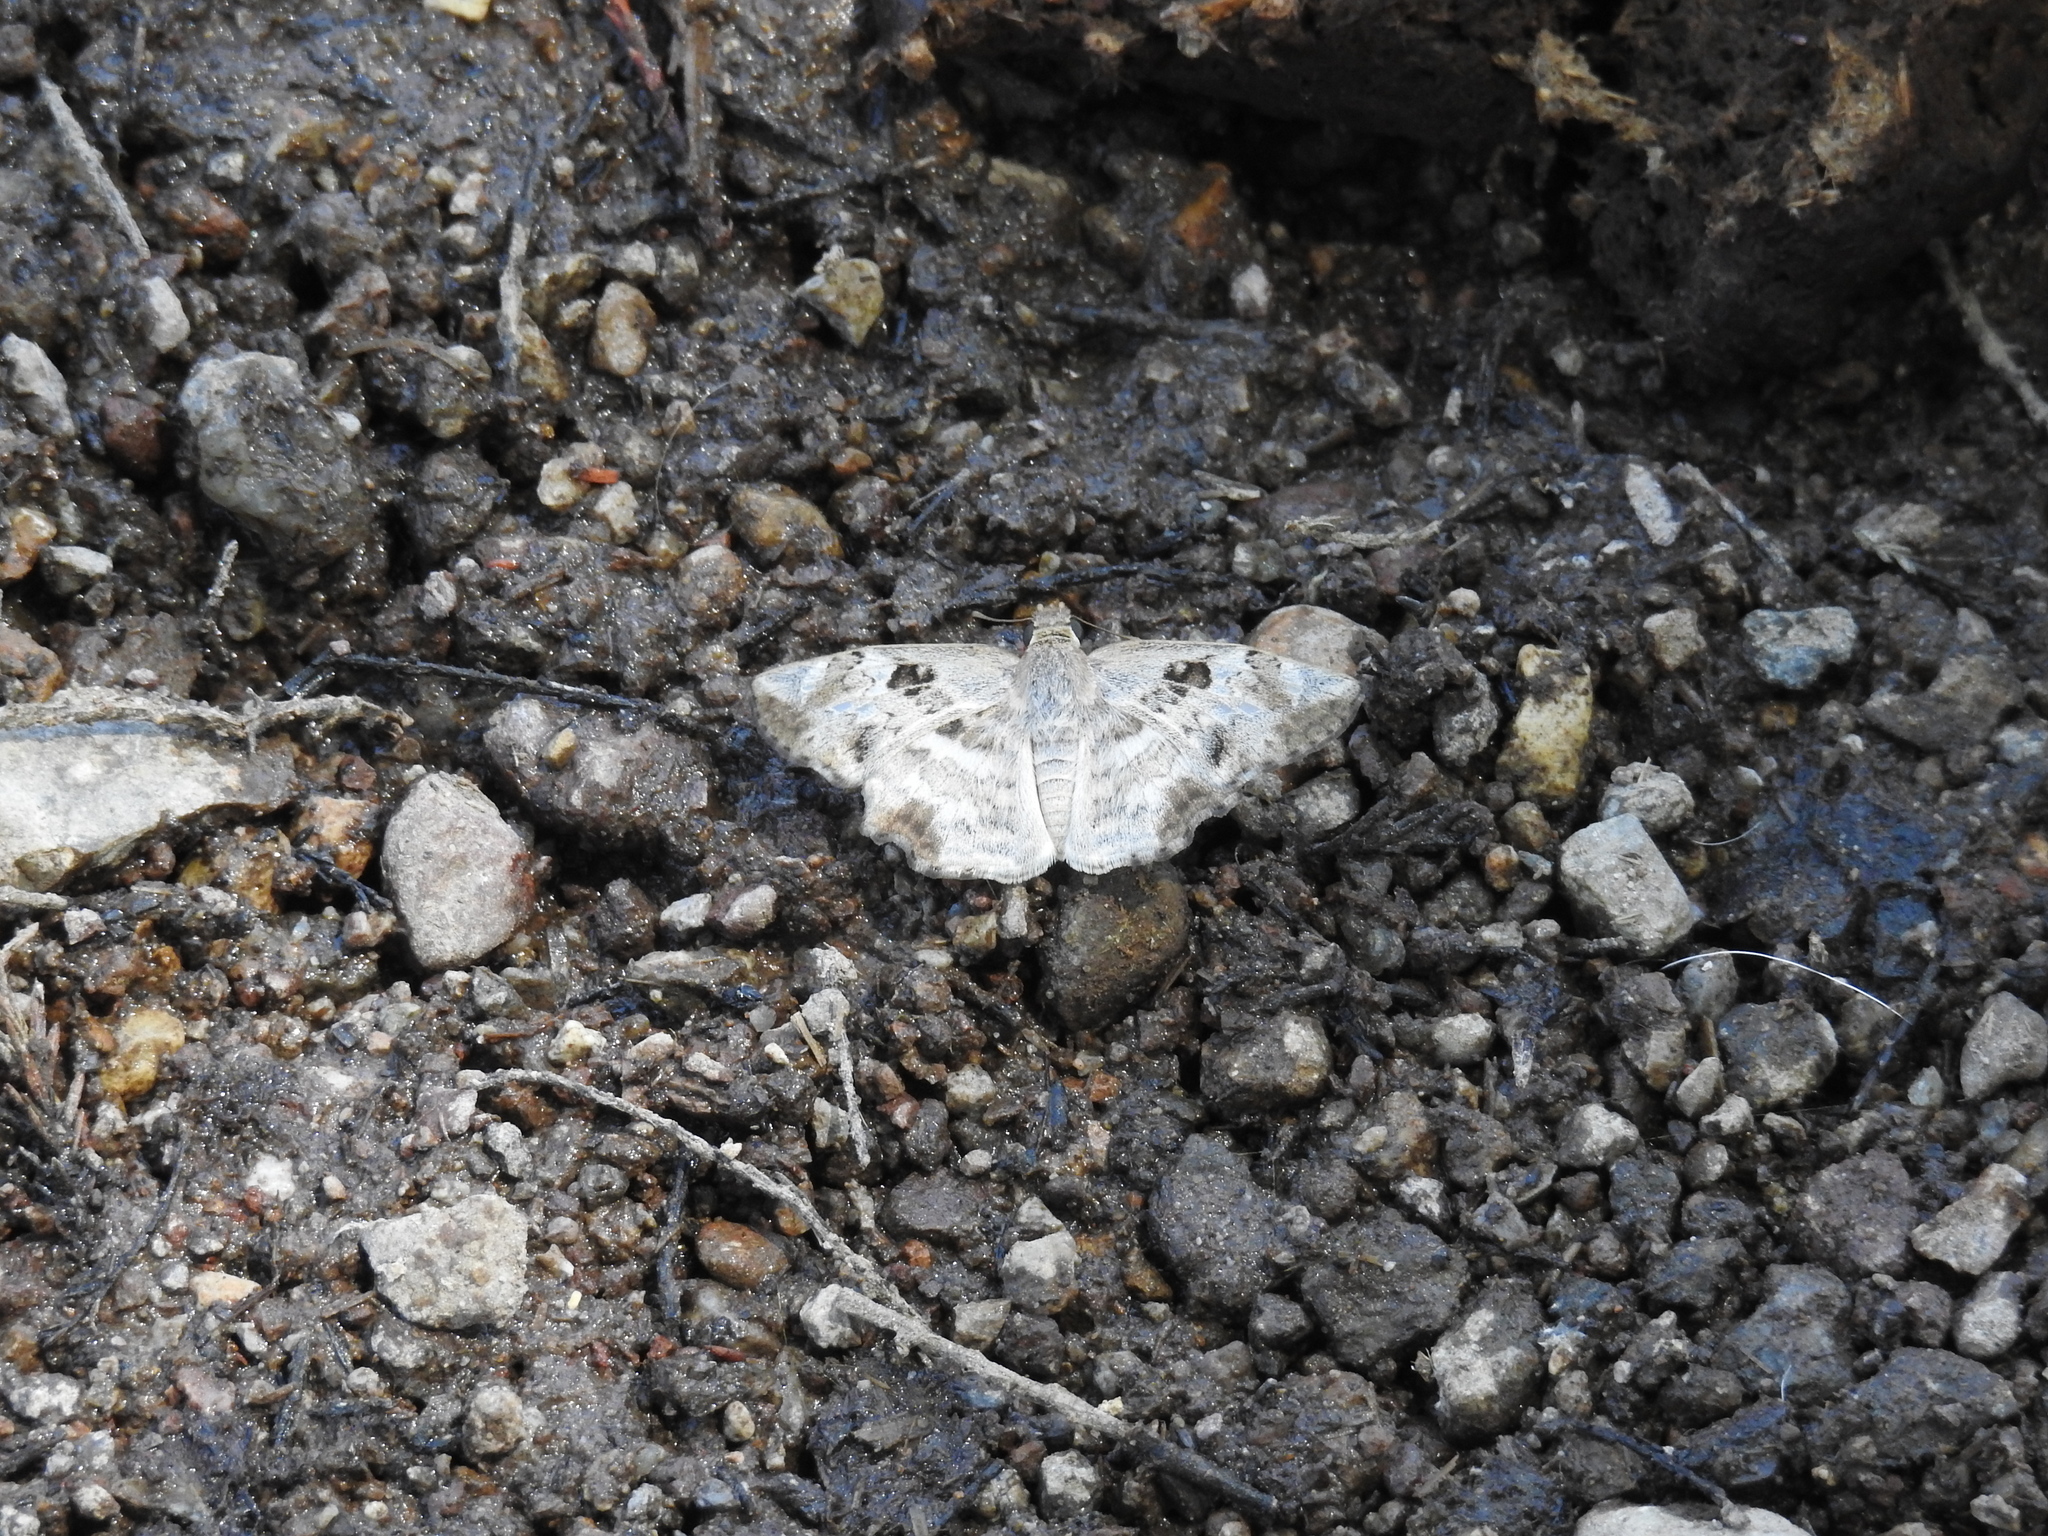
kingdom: Animalia
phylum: Arthropoda
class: Insecta
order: Lepidoptera
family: Hesperiidae
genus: Antigonus
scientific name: Antigonus emorsa
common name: White spurwing
